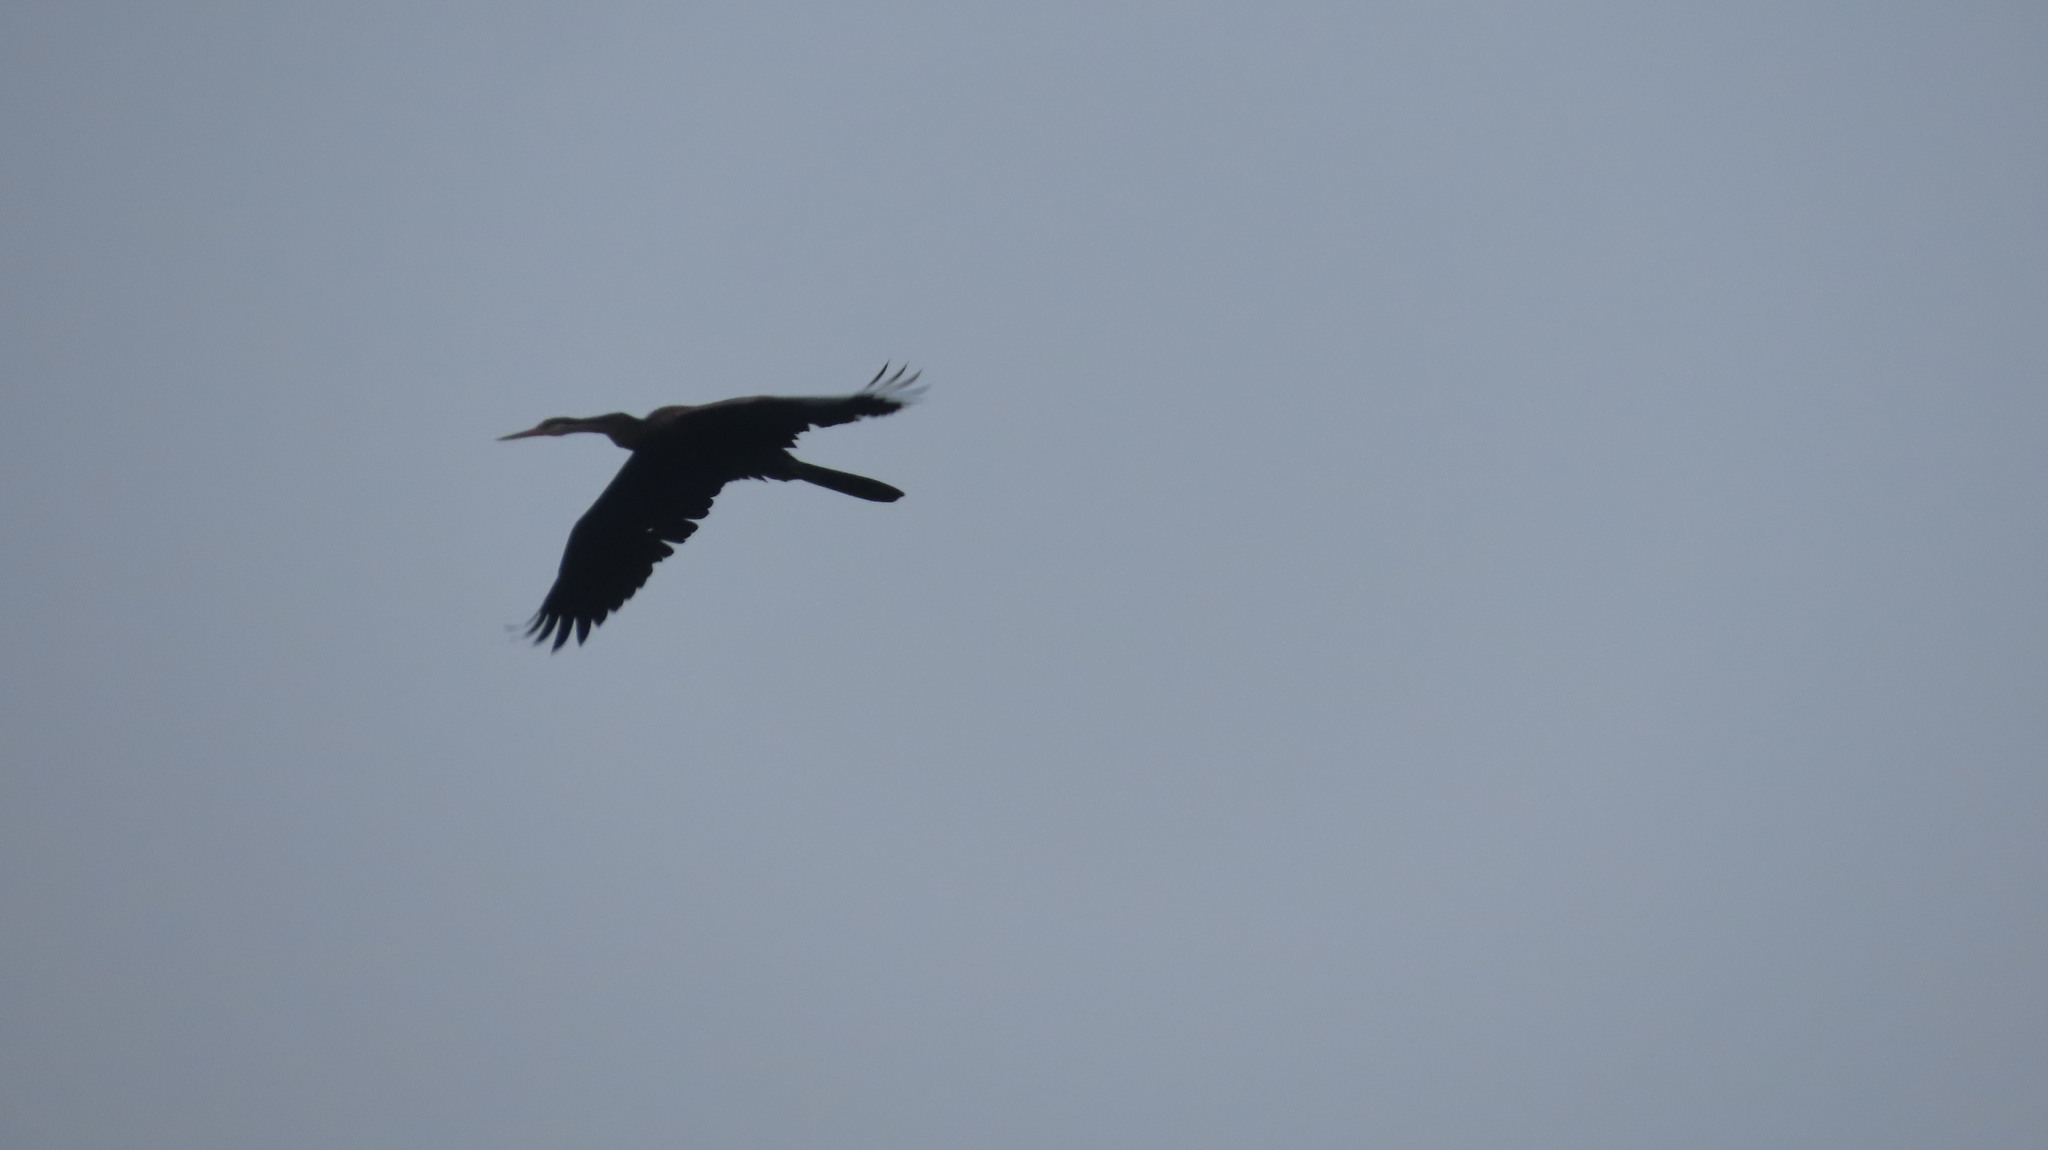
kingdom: Animalia
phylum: Chordata
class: Aves
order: Suliformes
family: Anhingidae
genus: Anhinga
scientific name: Anhinga melanogaster
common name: Oriental darter
